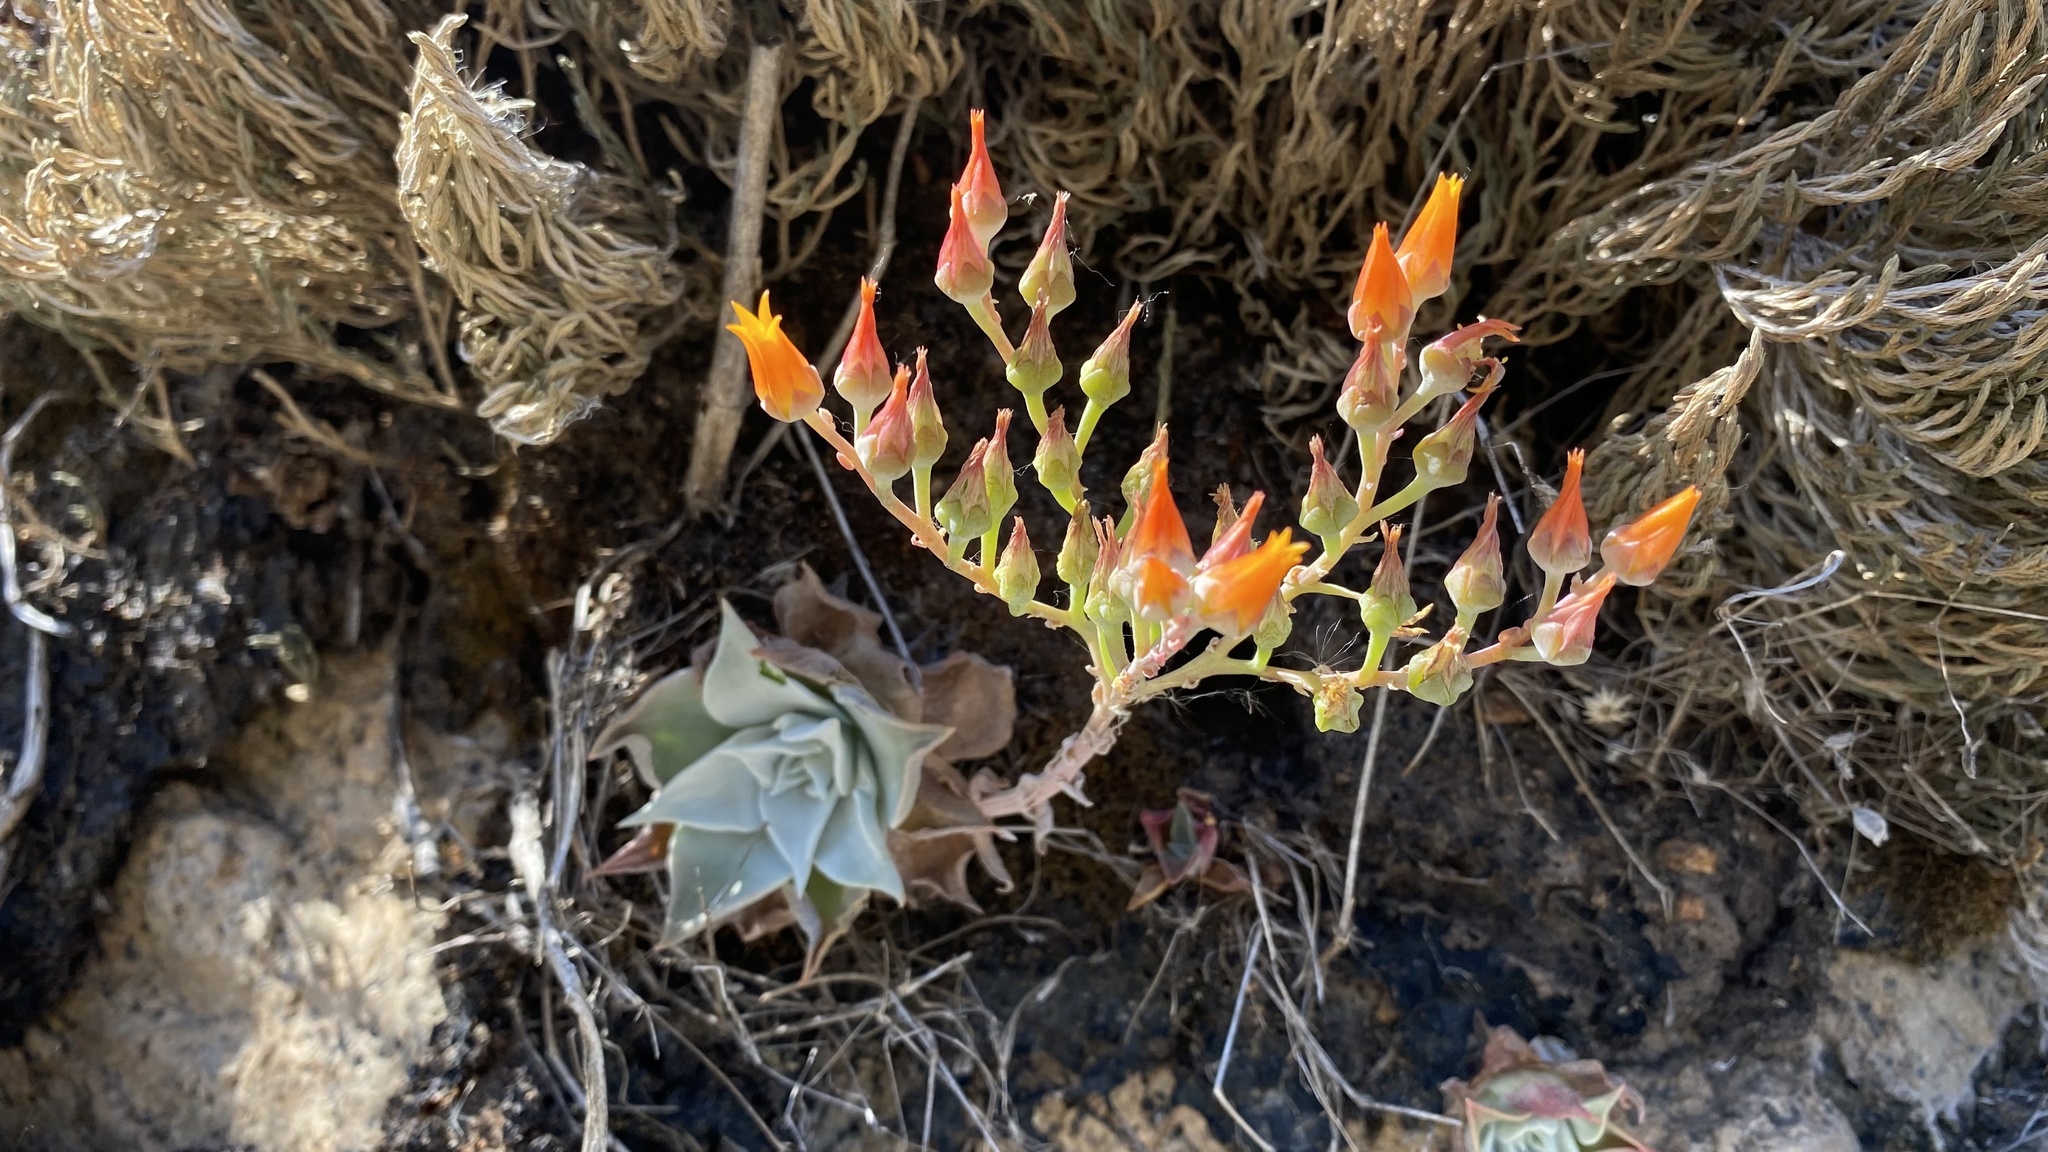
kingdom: Plantae
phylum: Tracheophyta
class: Magnoliopsida
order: Saxifragales
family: Crassulaceae
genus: Dudleya
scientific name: Dudleya cymosa
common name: Canyon dudleya
